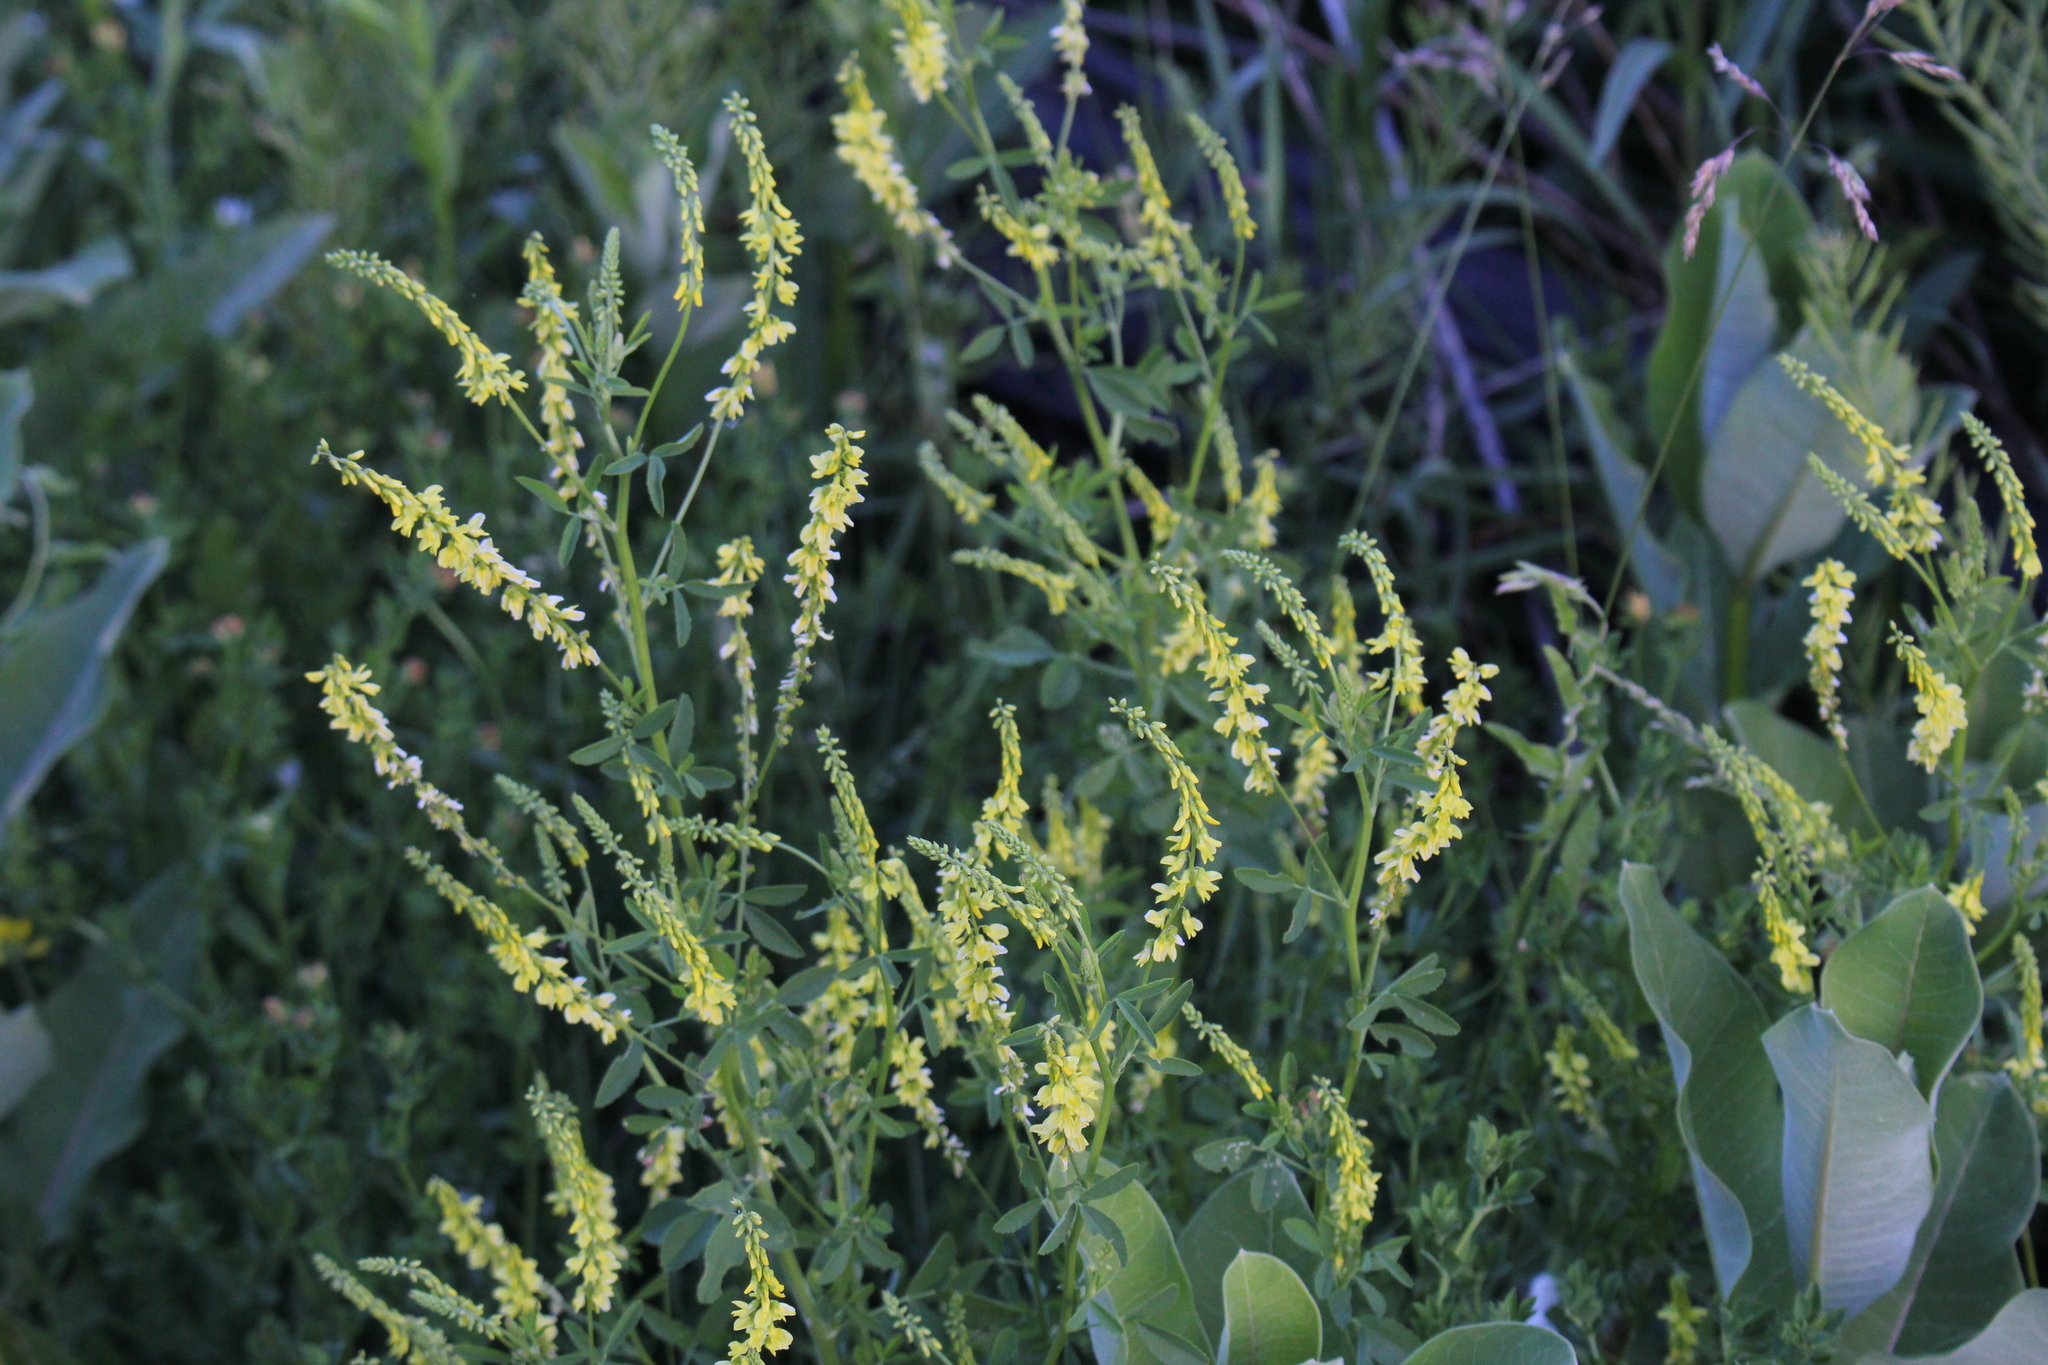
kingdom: Plantae
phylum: Tracheophyta
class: Magnoliopsida
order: Fabales
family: Fabaceae
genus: Melilotus
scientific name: Melilotus officinalis
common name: Sweetclover
